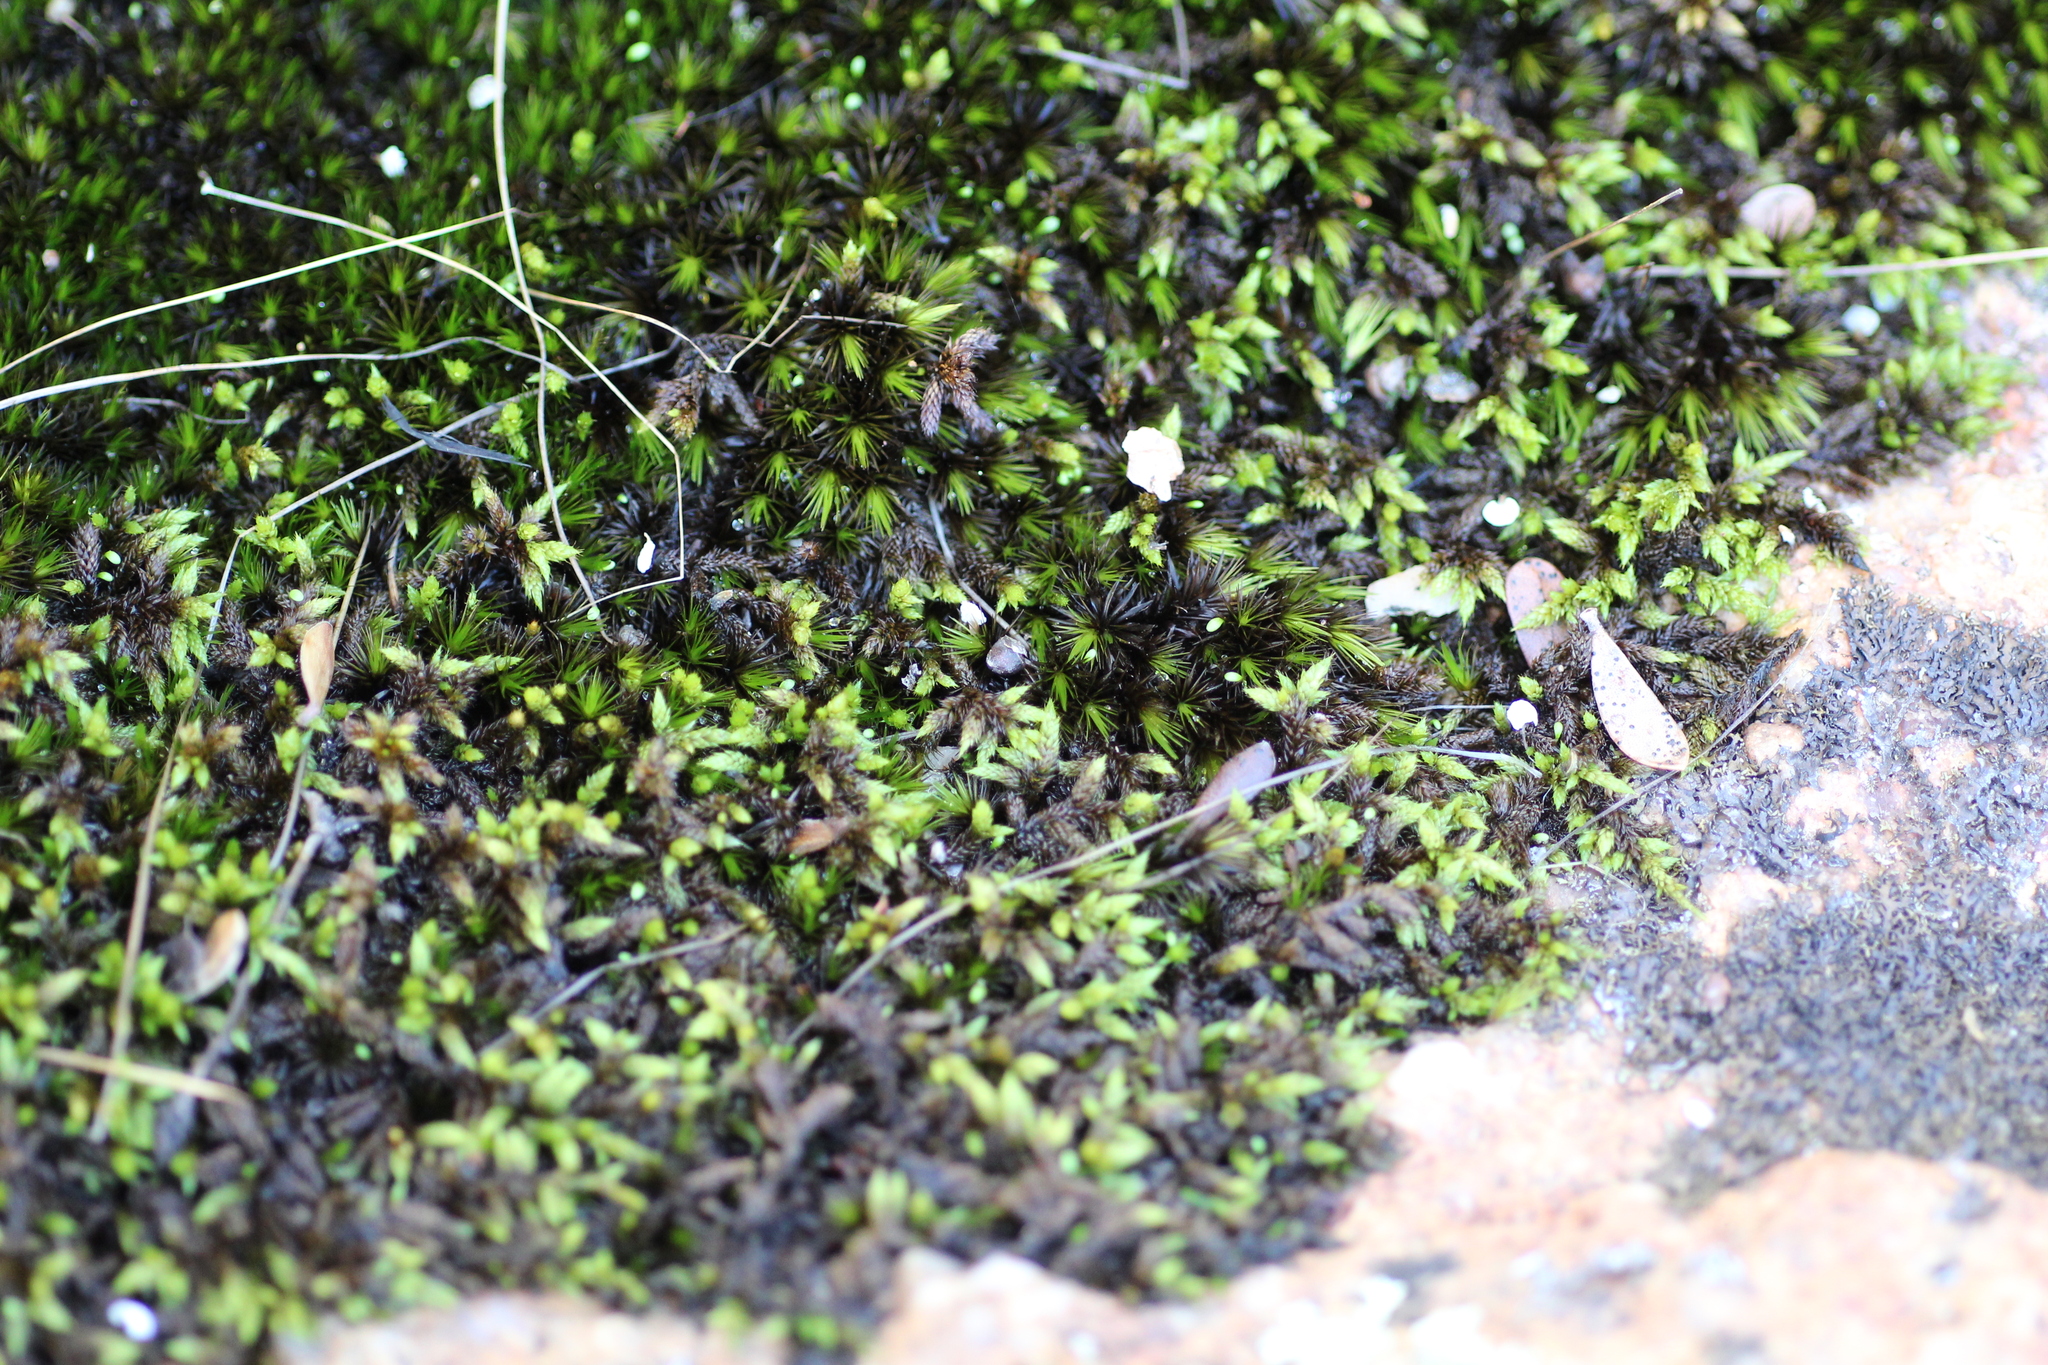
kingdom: Plantae
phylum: Bryophyta
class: Bryopsida
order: Dicranales
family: Leucobryaceae
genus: Campylopus
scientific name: Campylopus bicolor
